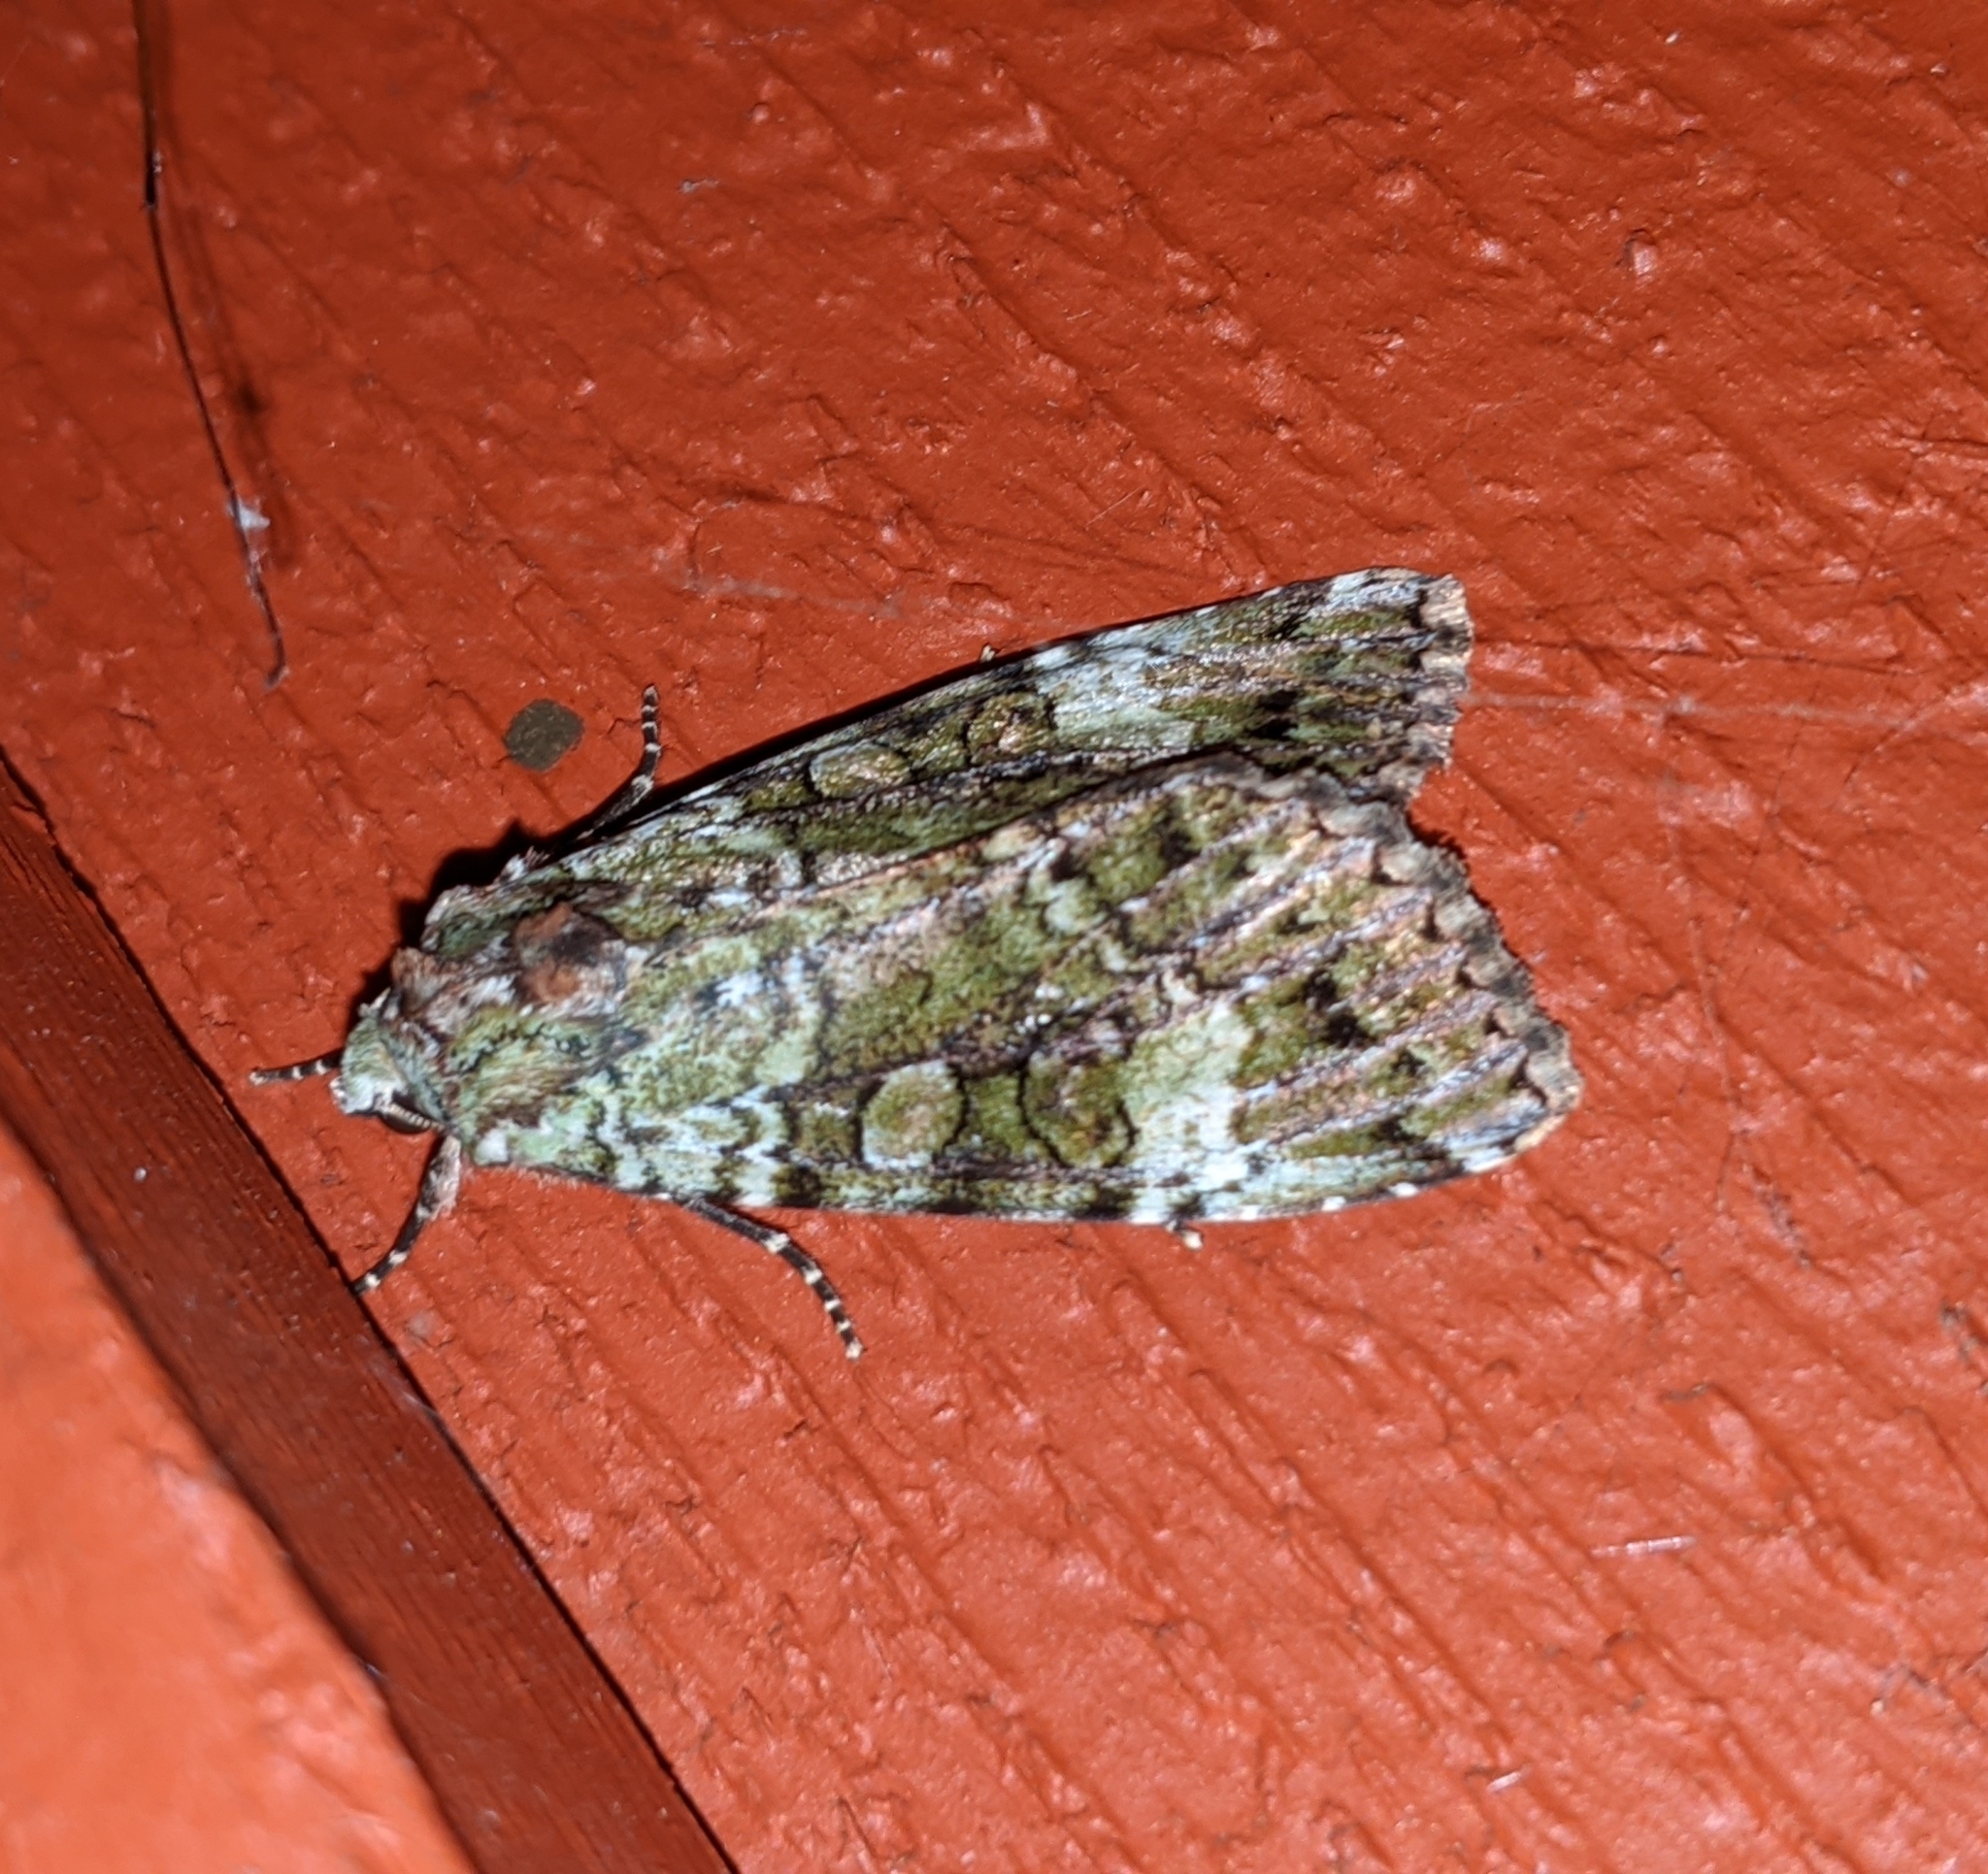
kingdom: Animalia
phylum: Arthropoda
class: Insecta
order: Lepidoptera
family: Noctuidae
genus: Anaplectoides
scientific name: Anaplectoides prasina
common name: Green arches
